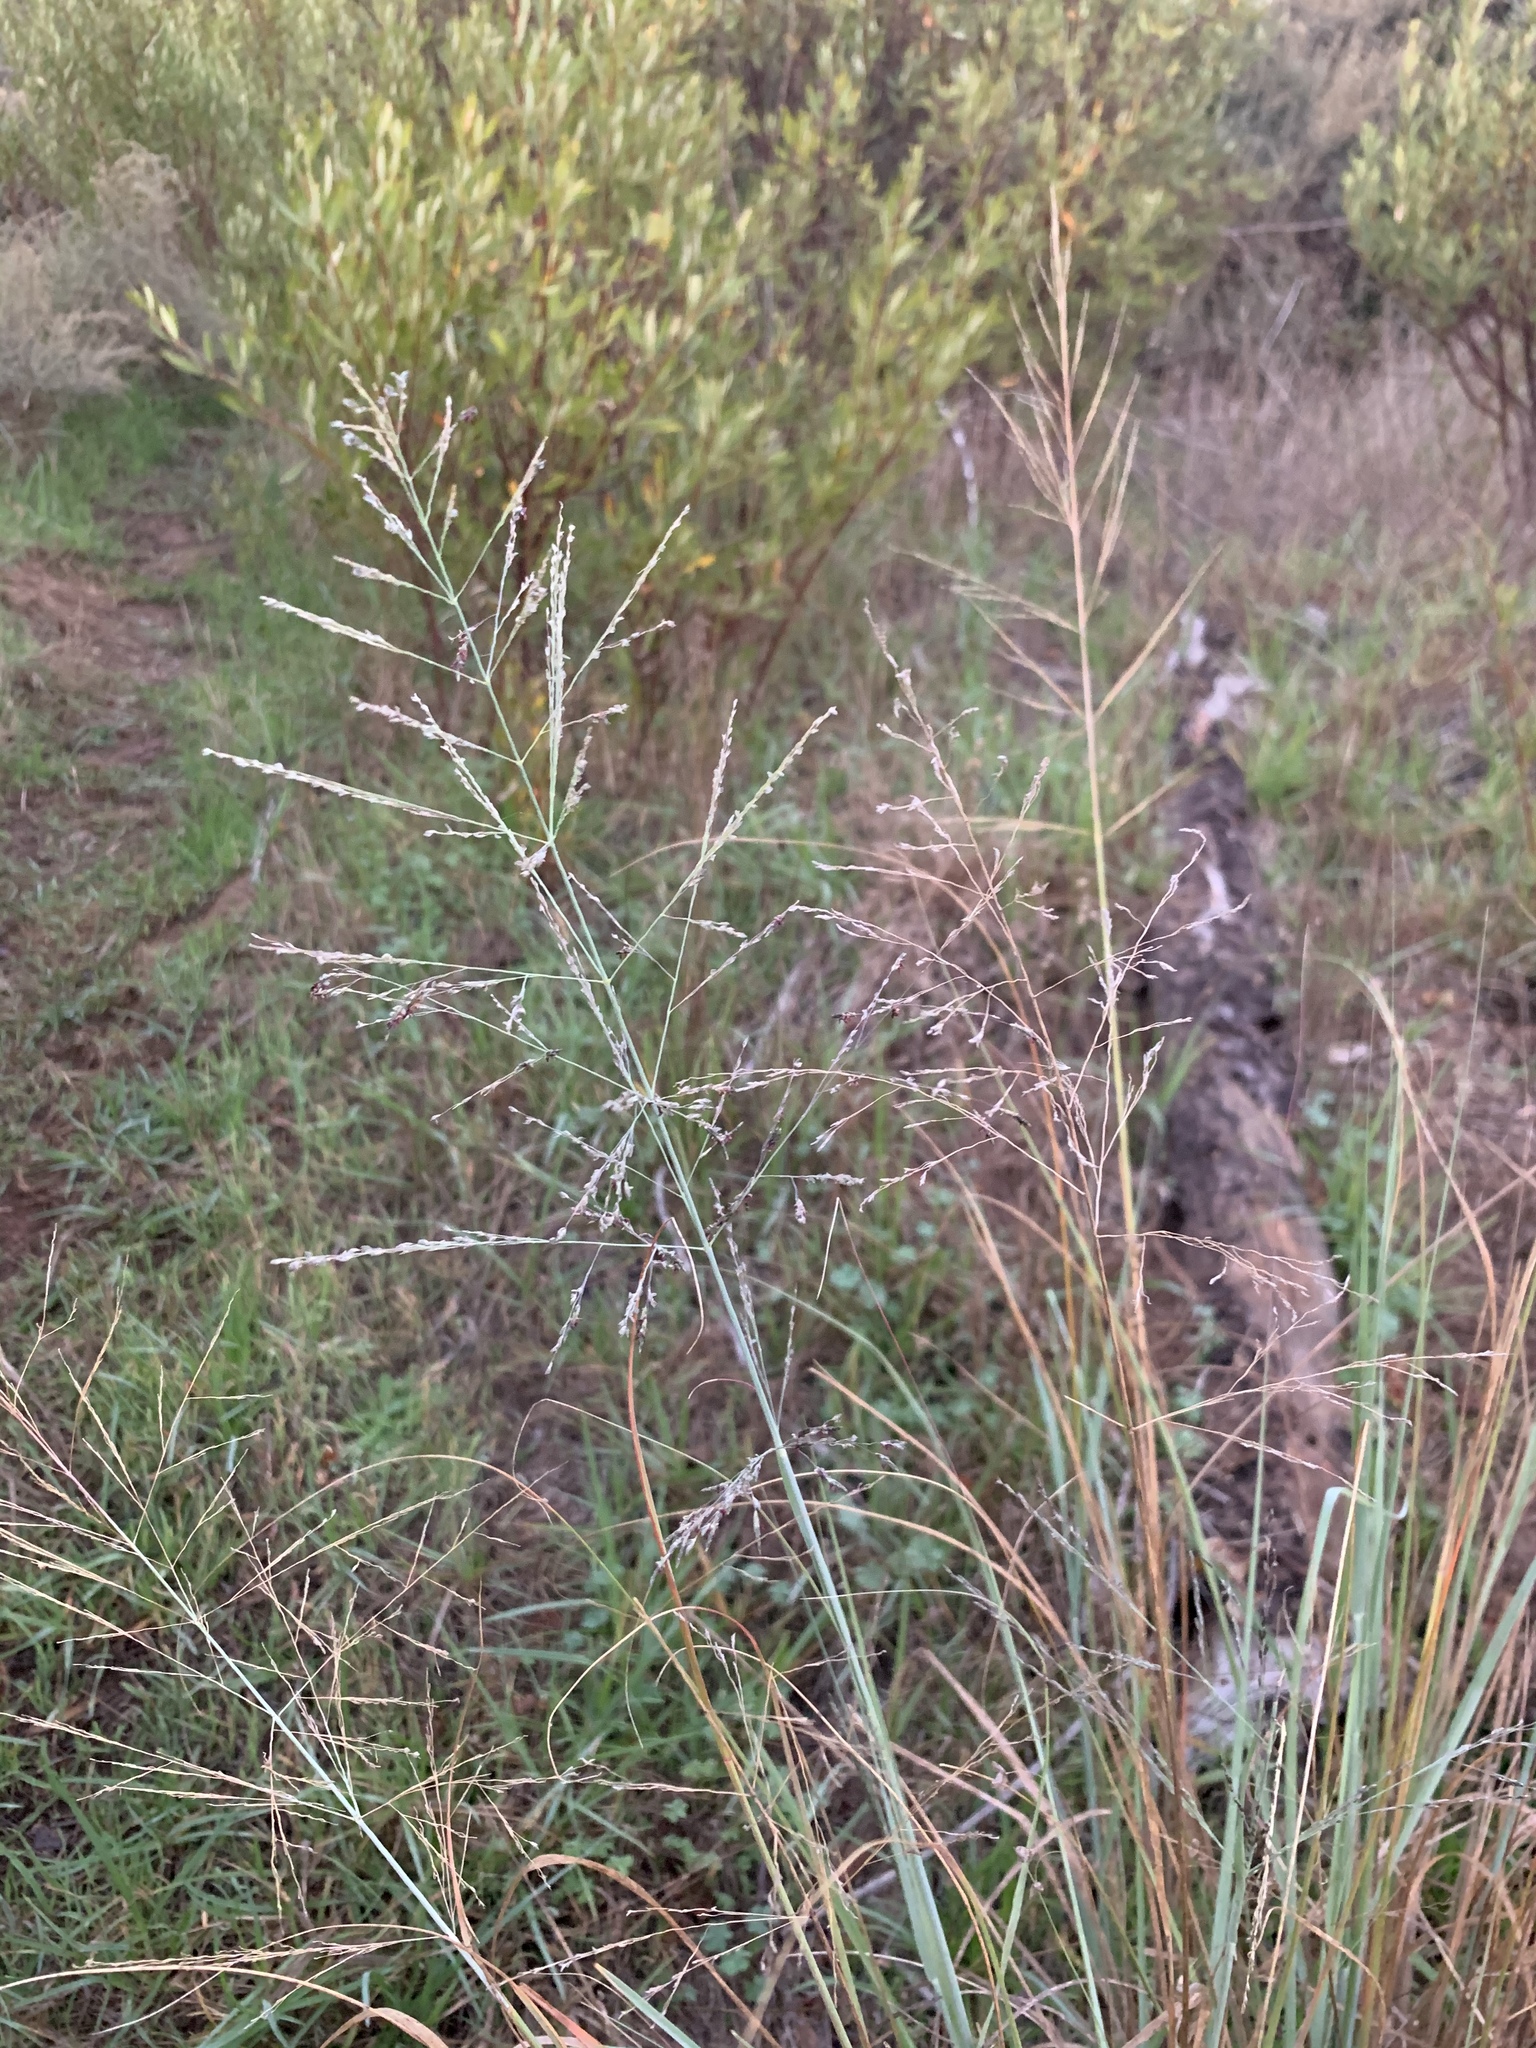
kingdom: Plantae
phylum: Tracheophyta
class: Liliopsida
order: Poales
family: Poaceae
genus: Eragrostis
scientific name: Eragrostis curvula
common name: African love-grass
